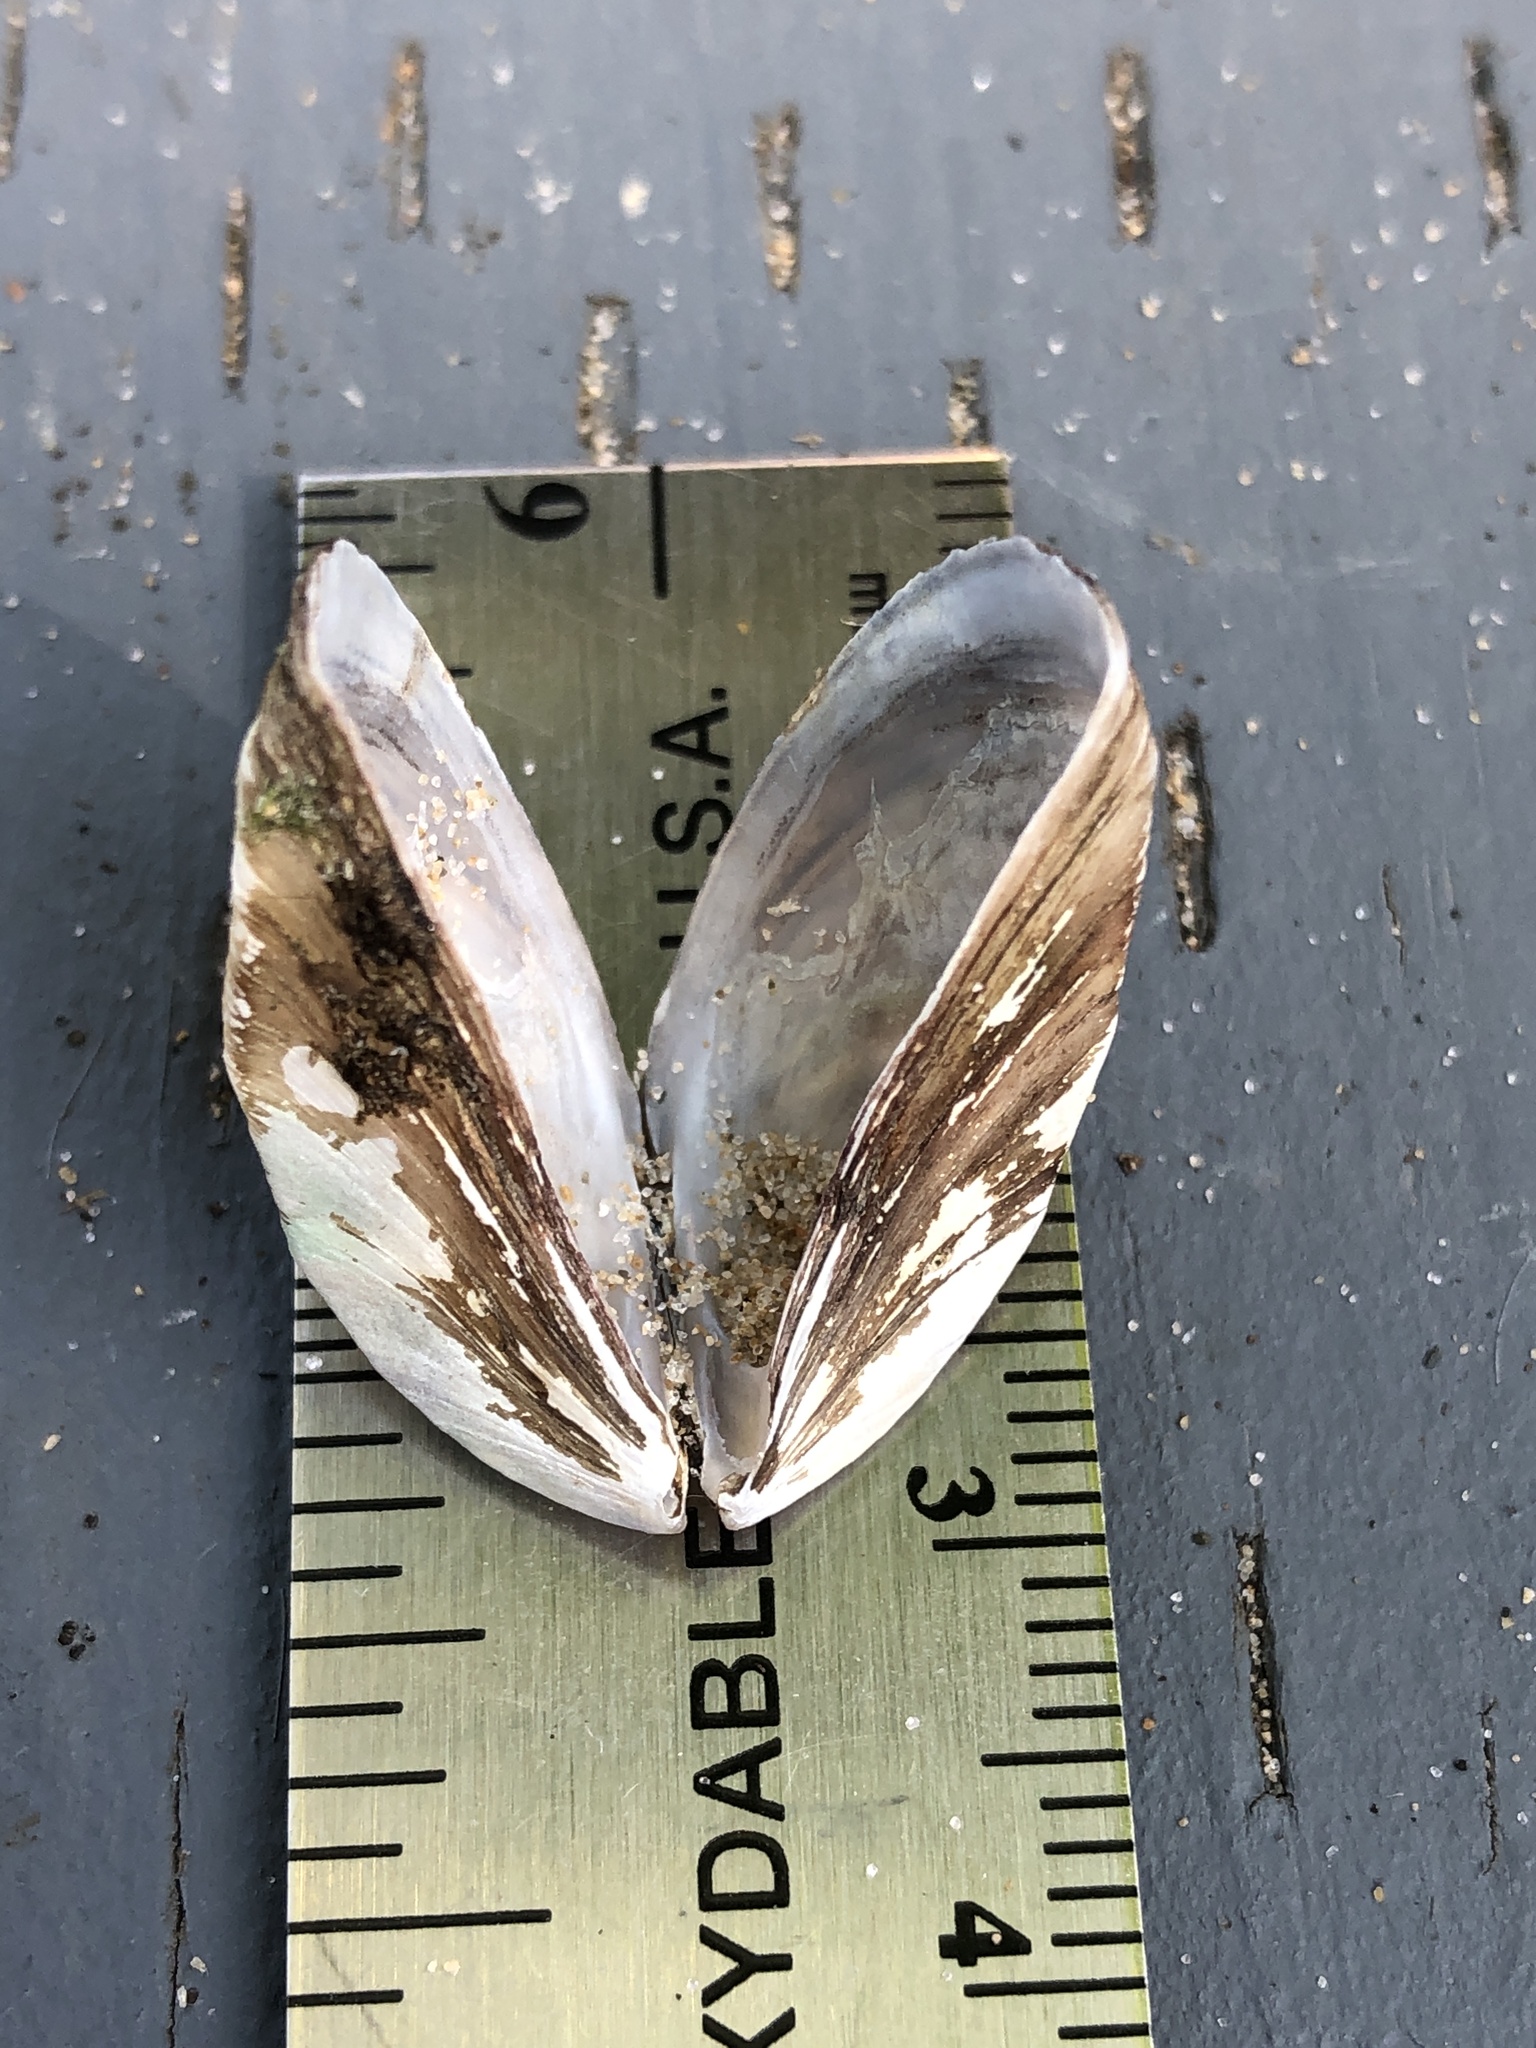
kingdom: Animalia
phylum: Mollusca
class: Bivalvia
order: Myida
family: Dreissenidae
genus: Dreissena
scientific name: Dreissena polymorpha
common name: Zebra mussel
